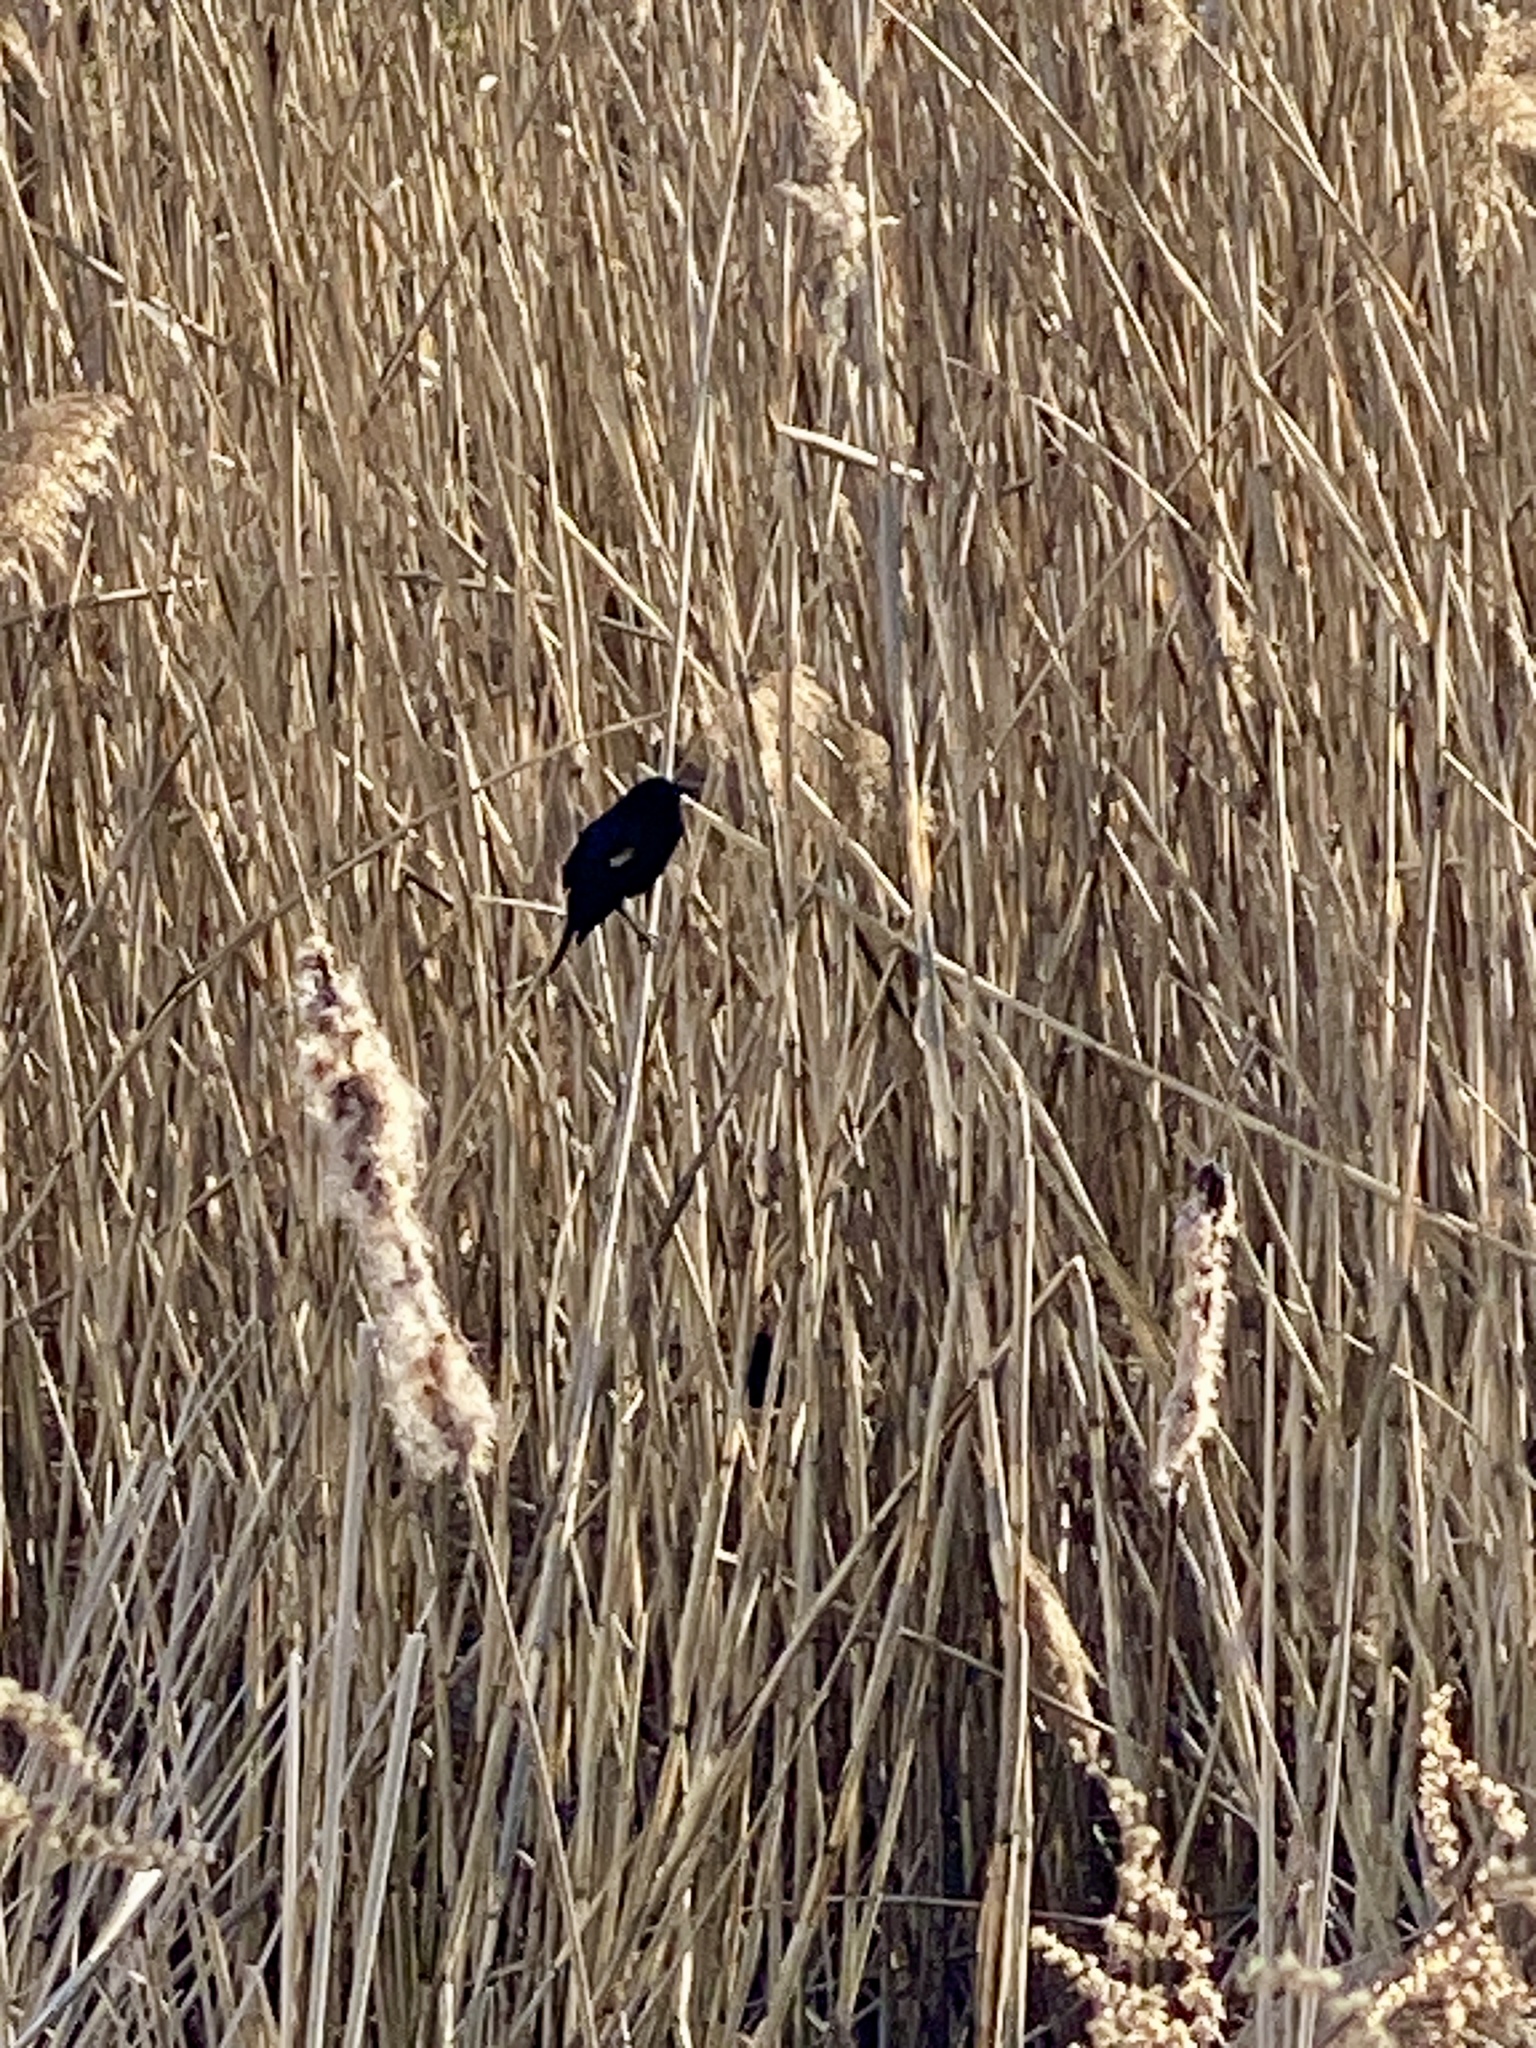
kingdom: Animalia
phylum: Chordata
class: Aves
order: Passeriformes
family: Icteridae
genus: Agelaius
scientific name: Agelaius phoeniceus
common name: Red-winged blackbird
